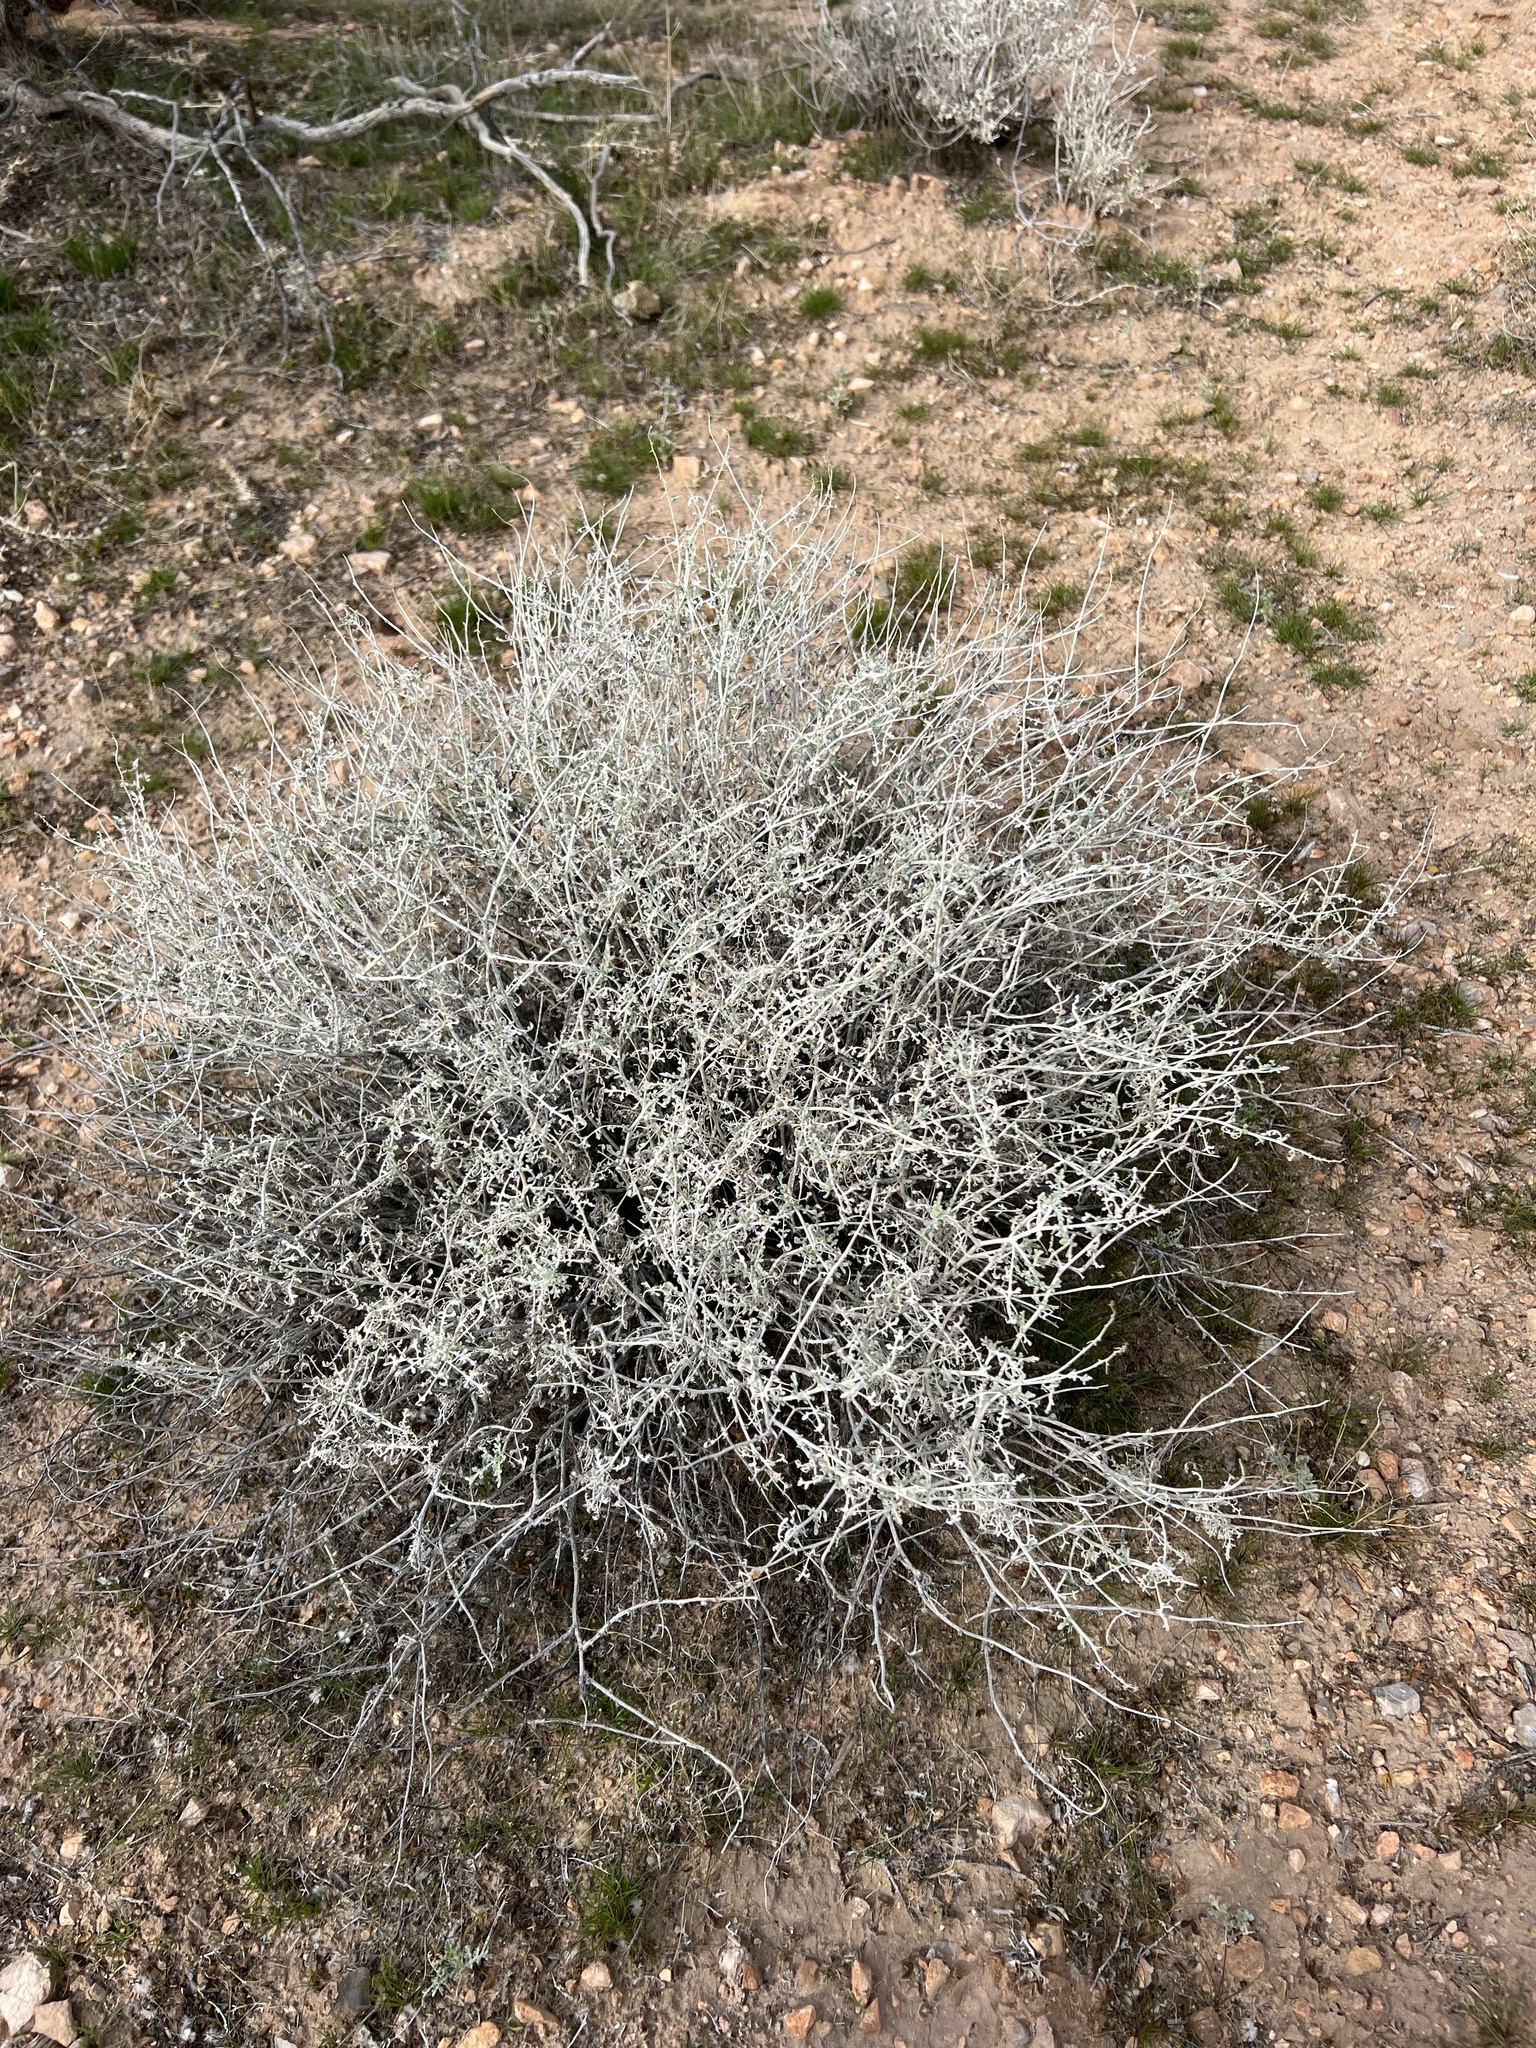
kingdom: Plantae
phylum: Tracheophyta
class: Magnoliopsida
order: Asterales
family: Asteraceae
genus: Ambrosia
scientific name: Ambrosia dumosa
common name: Bur-sage
